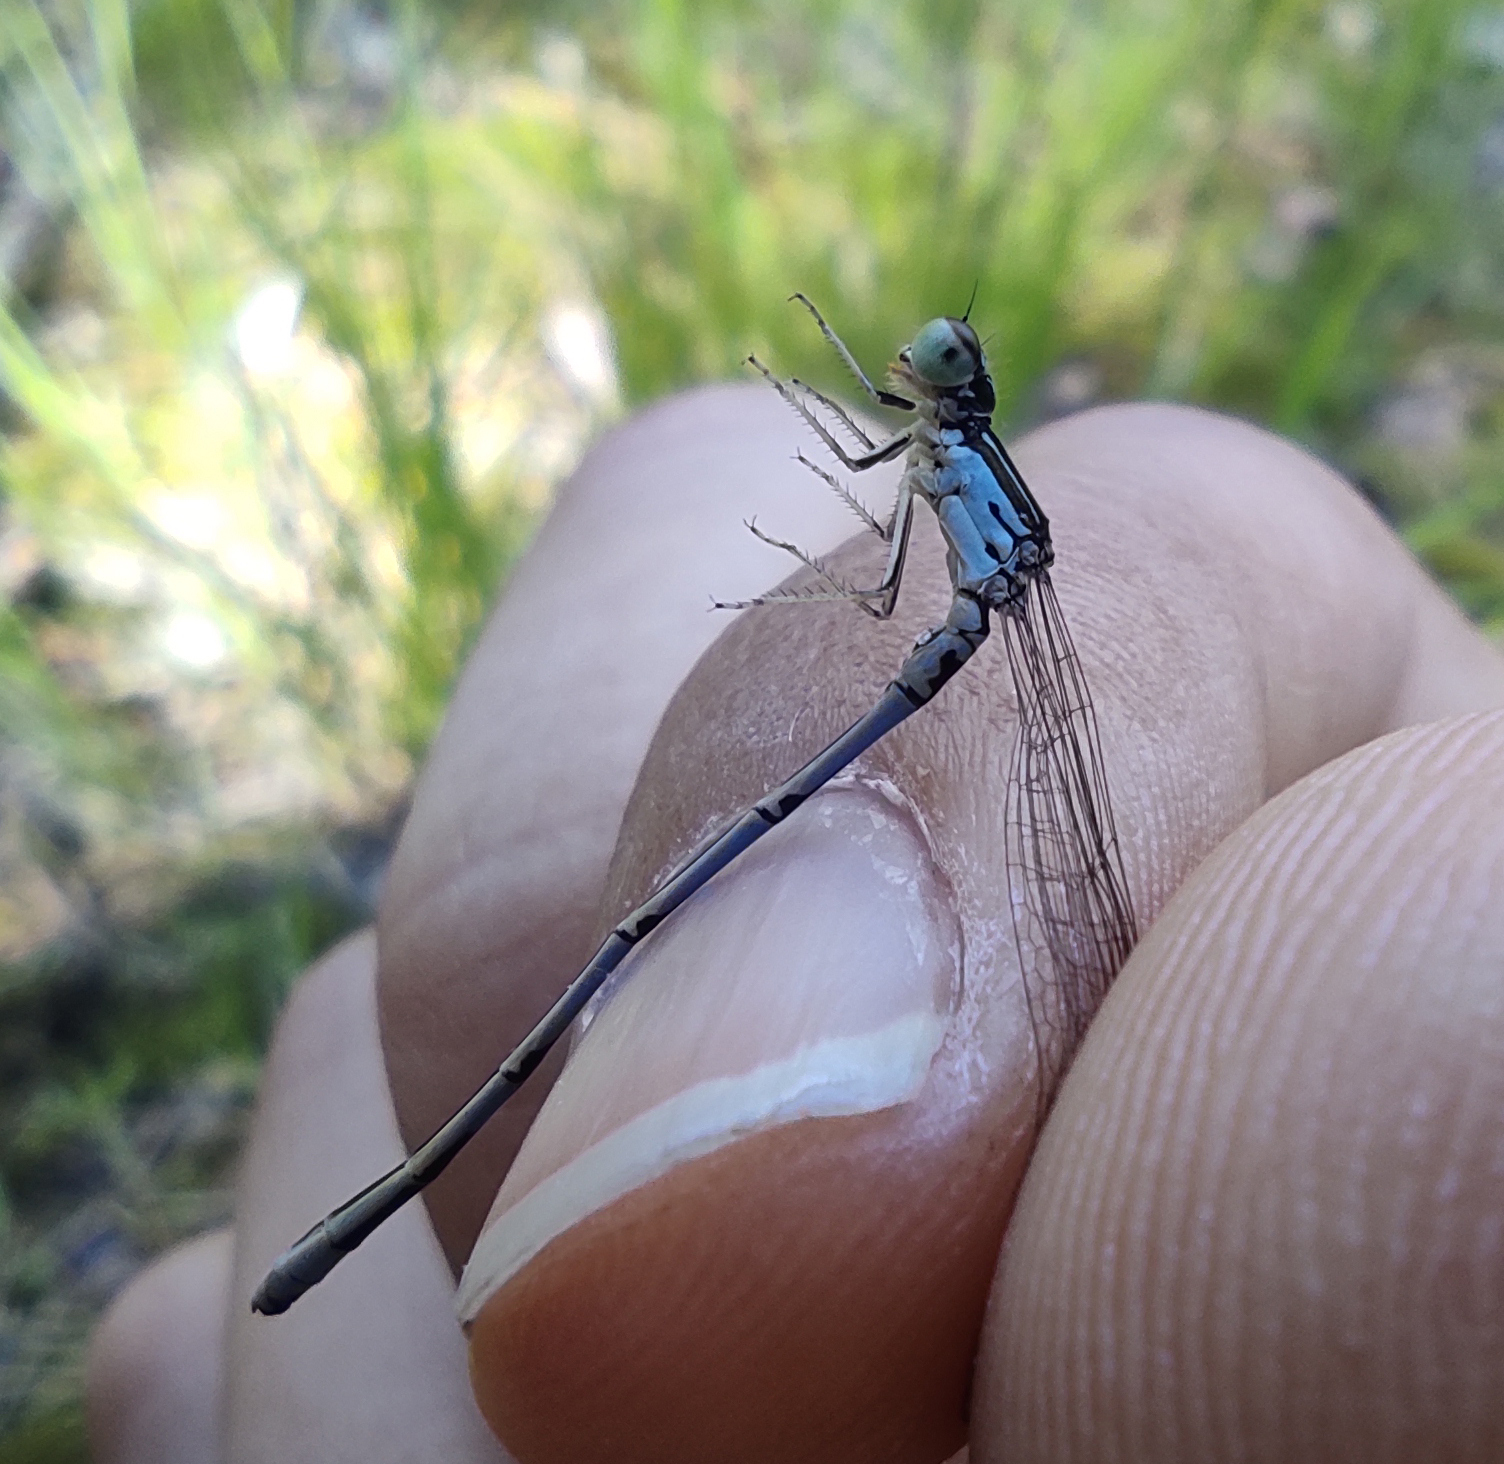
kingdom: Animalia
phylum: Arthropoda
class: Insecta
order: Odonata
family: Coenagrionidae
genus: Coenagrion
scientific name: Coenagrion ecornutum
